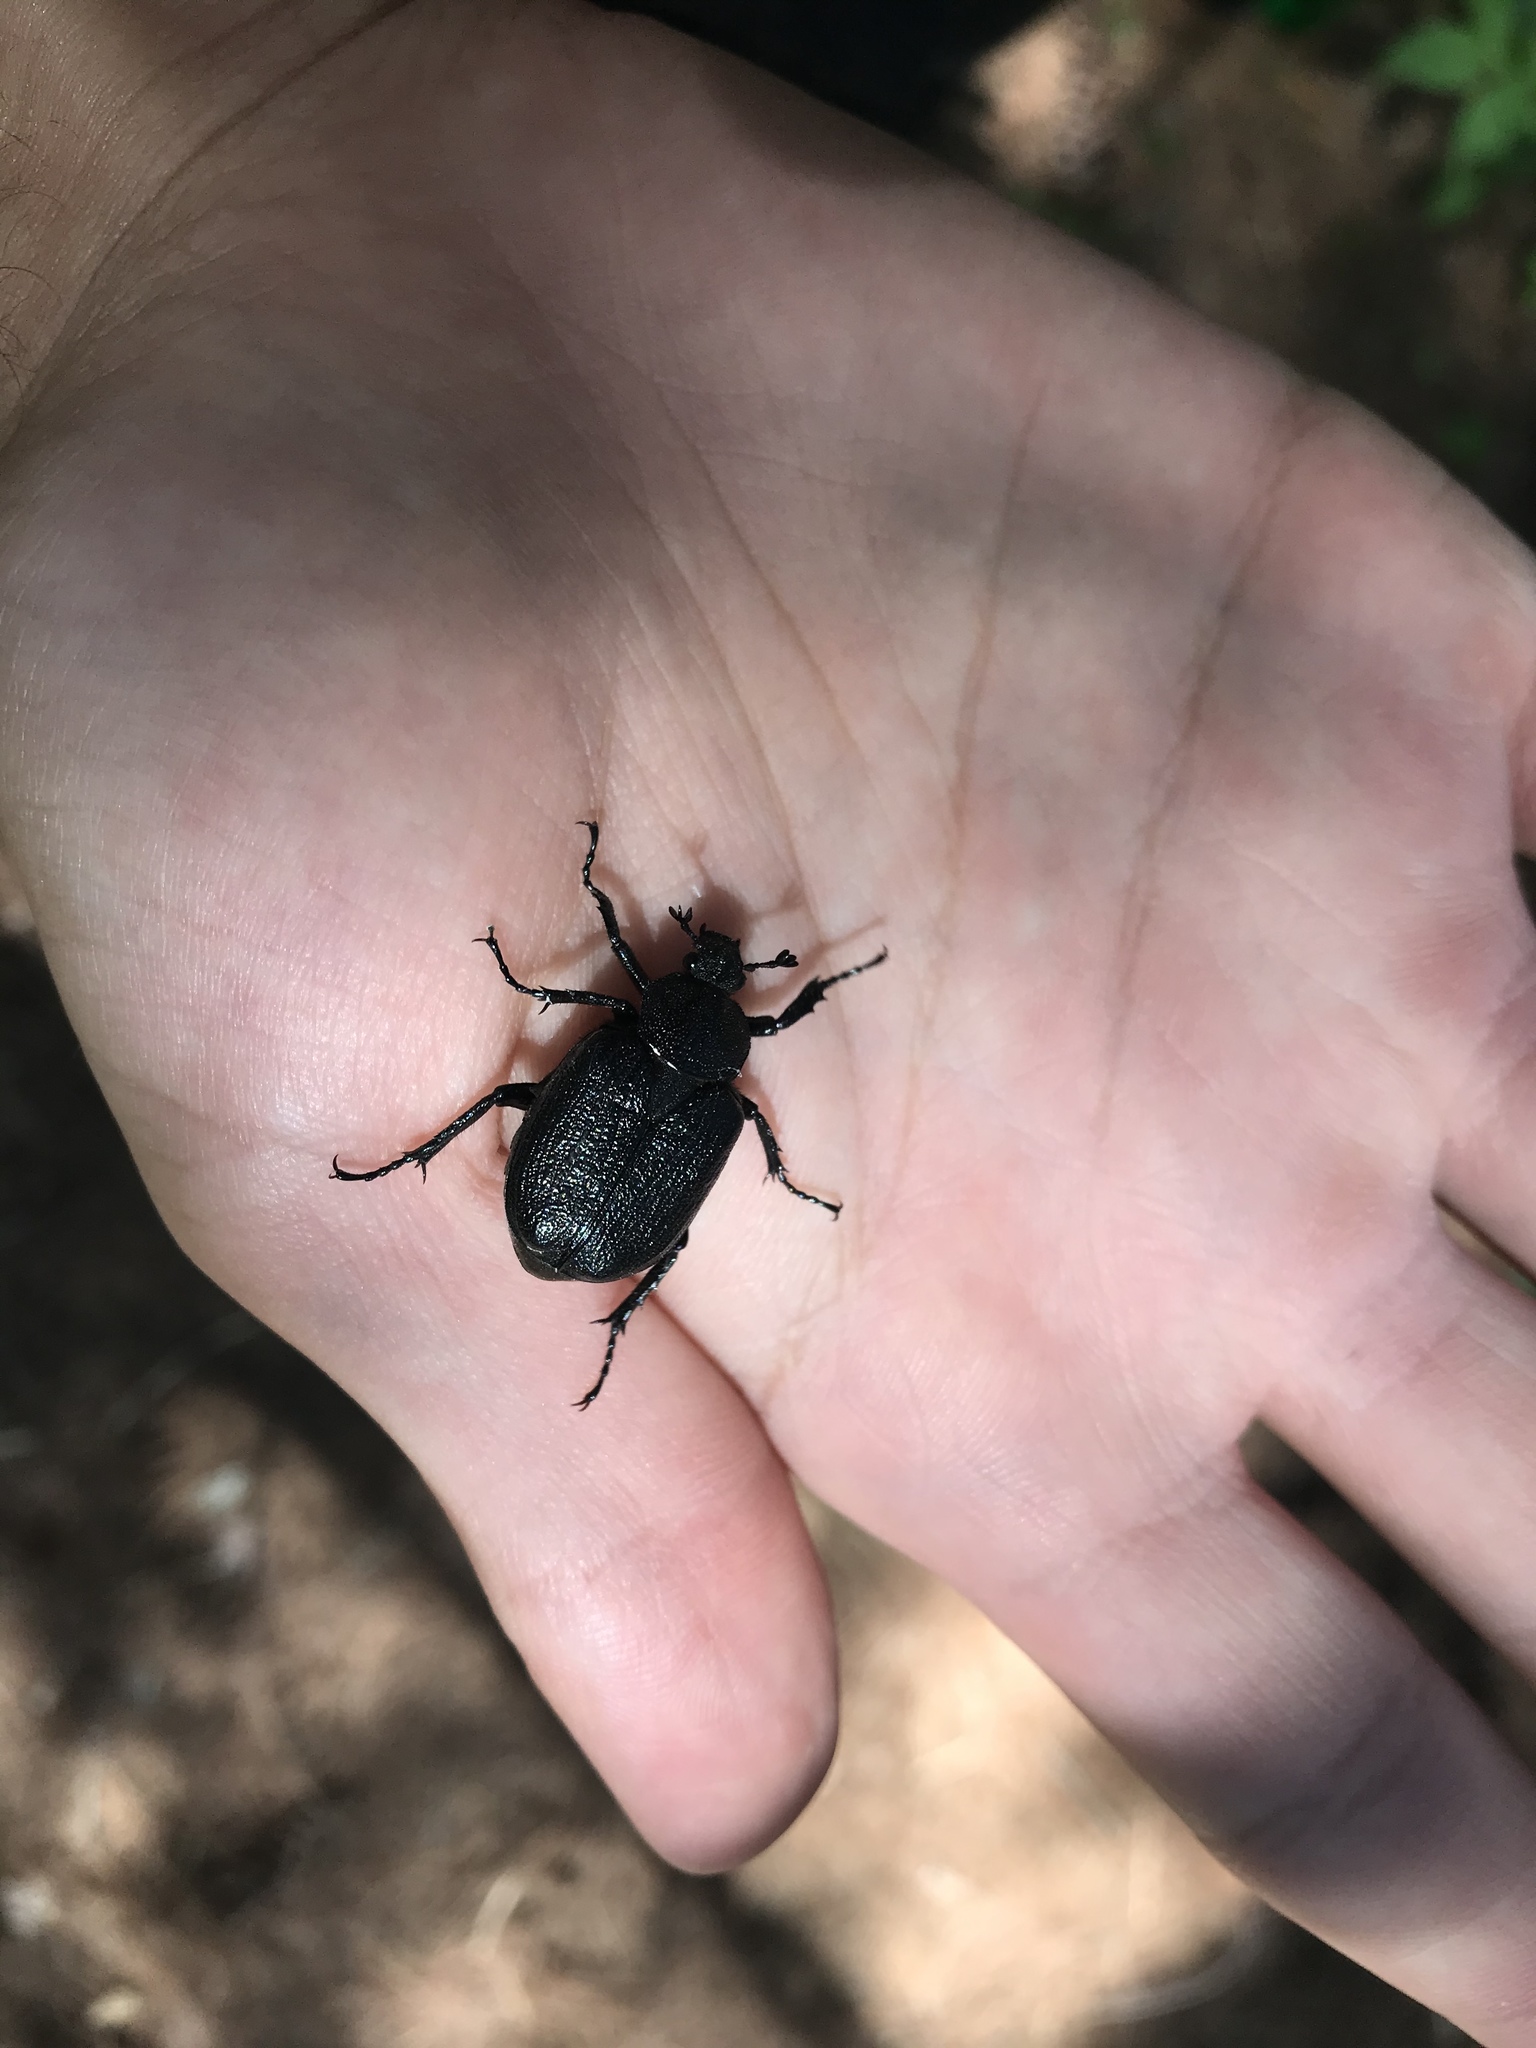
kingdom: Animalia
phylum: Arthropoda
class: Insecta
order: Coleoptera
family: Scarabaeidae
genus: Osmoderma
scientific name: Osmoderma scabra
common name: Rough hermit beetle
